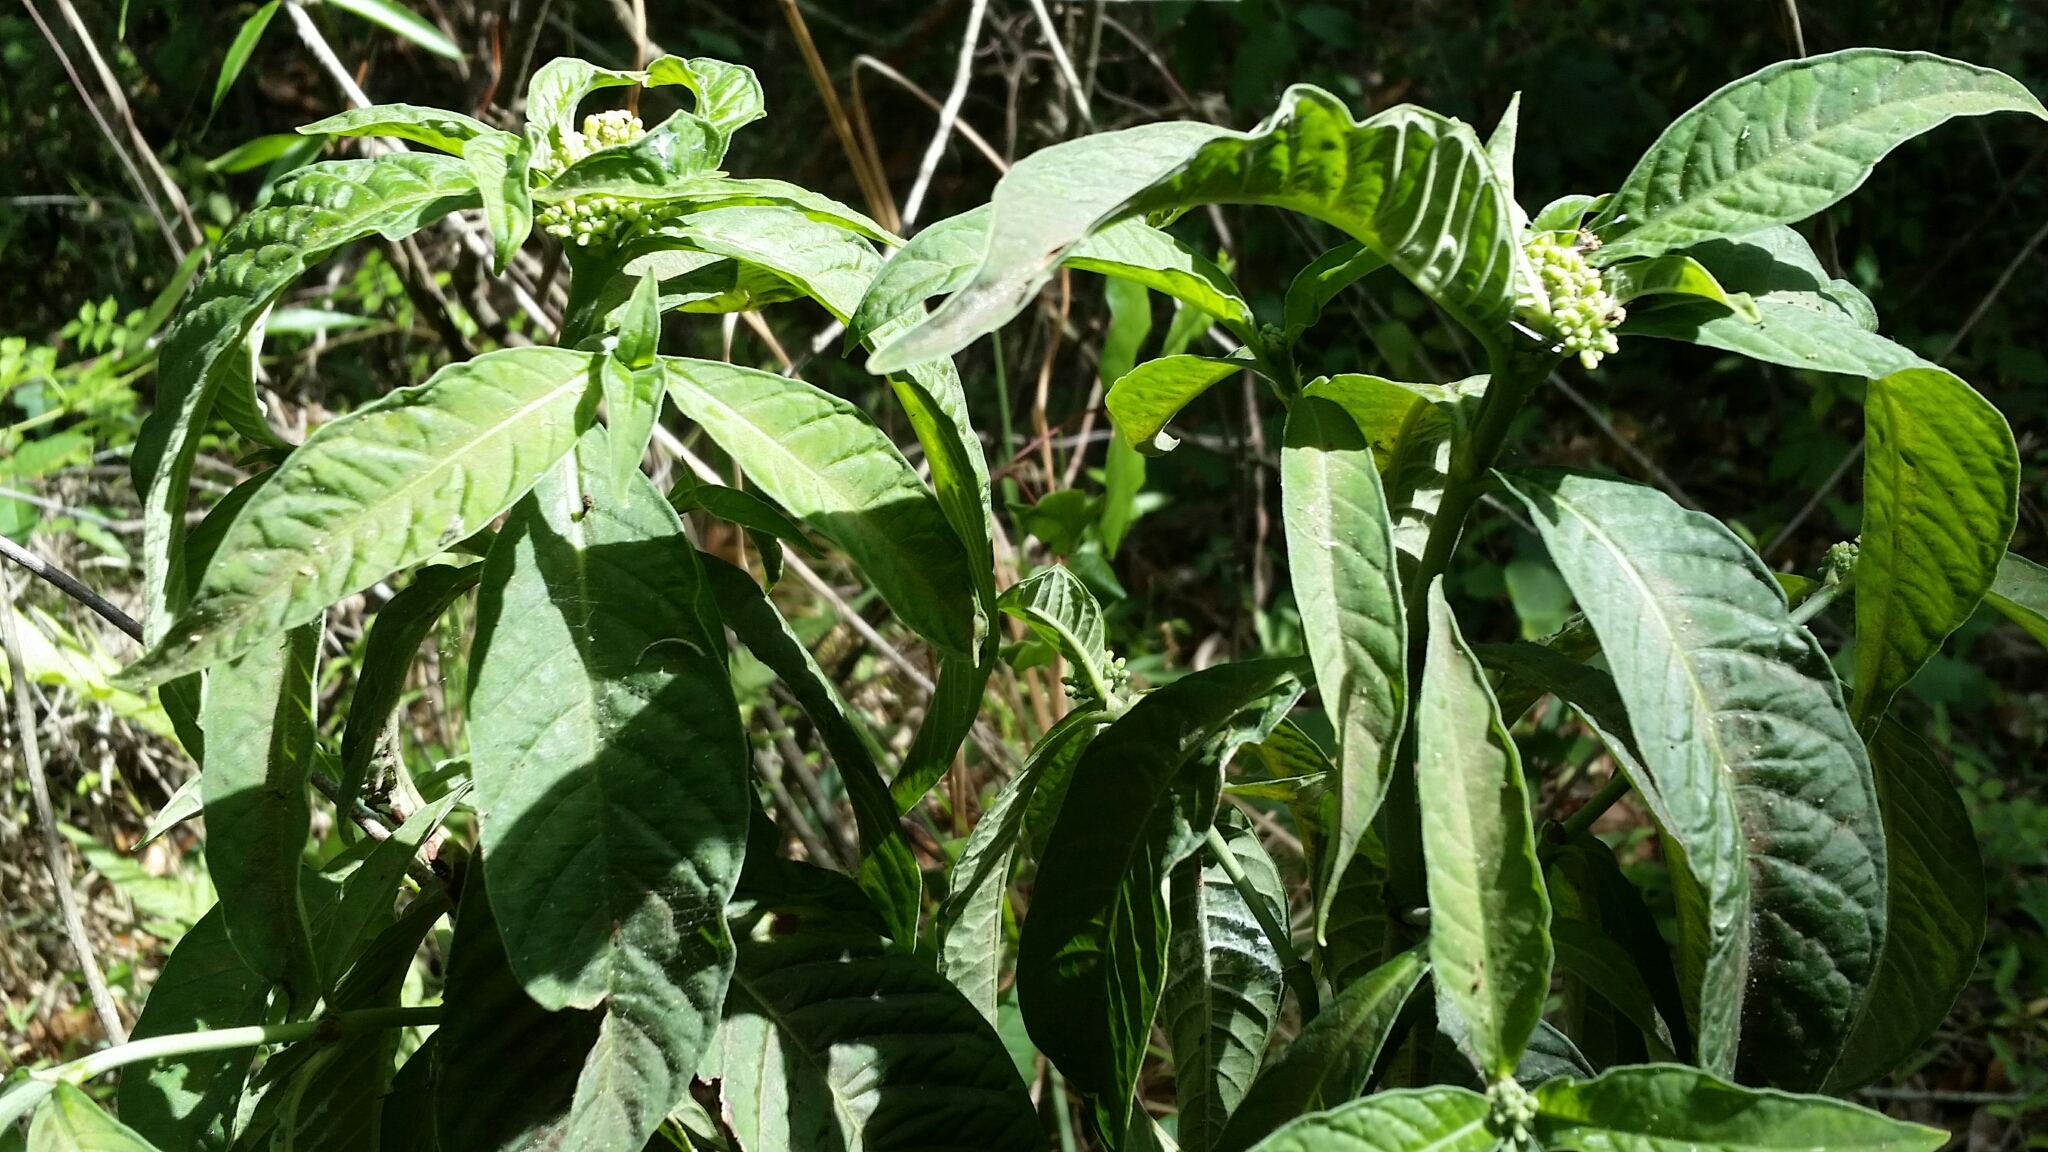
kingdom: Plantae
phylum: Tracheophyta
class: Magnoliopsida
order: Gentianales
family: Rubiaceae
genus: Psychotria
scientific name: Psychotria tenuifolia
